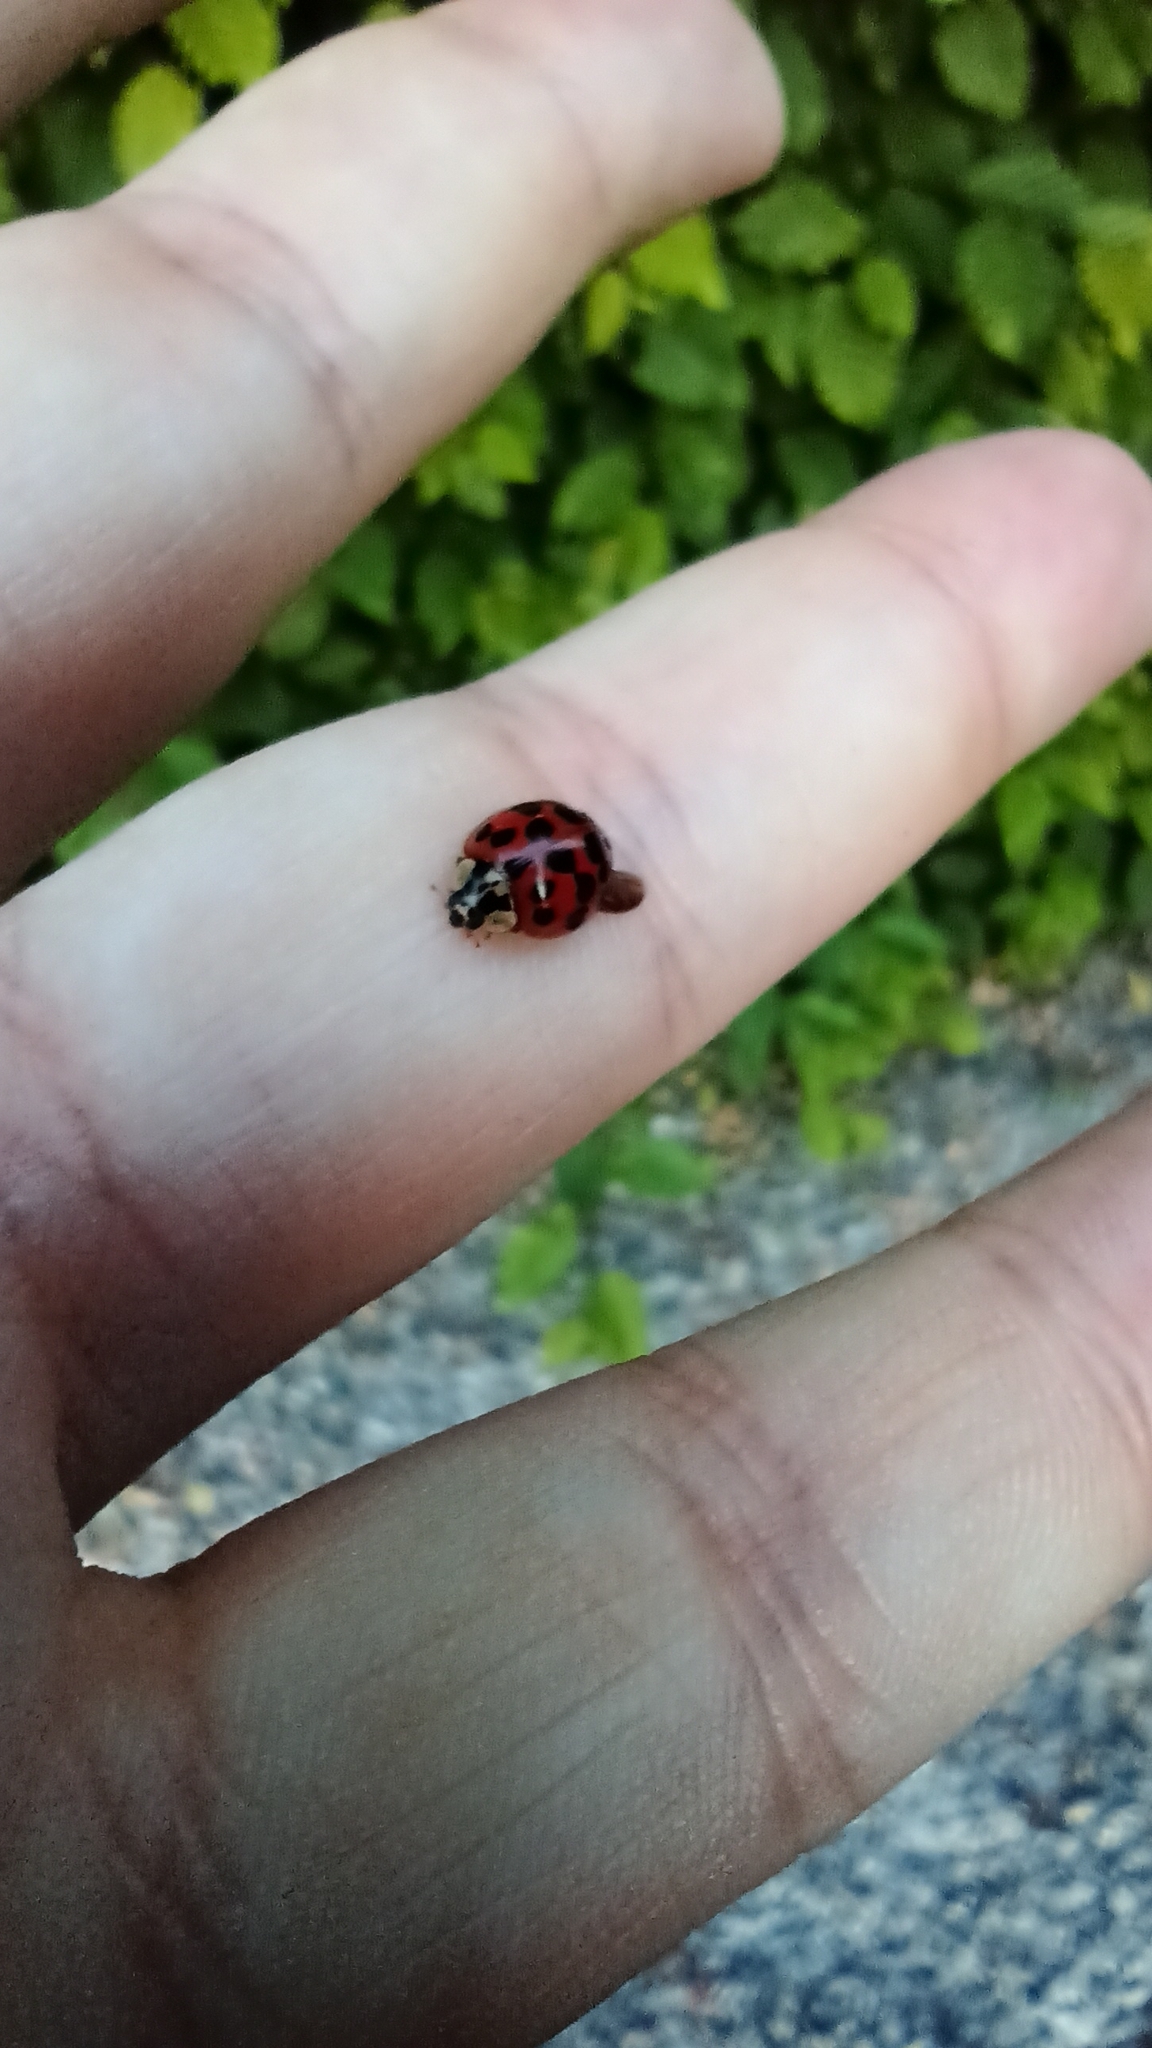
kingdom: Animalia
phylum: Arthropoda
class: Insecta
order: Coleoptera
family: Coccinellidae
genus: Harmonia
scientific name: Harmonia axyridis
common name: Harlequin ladybird
